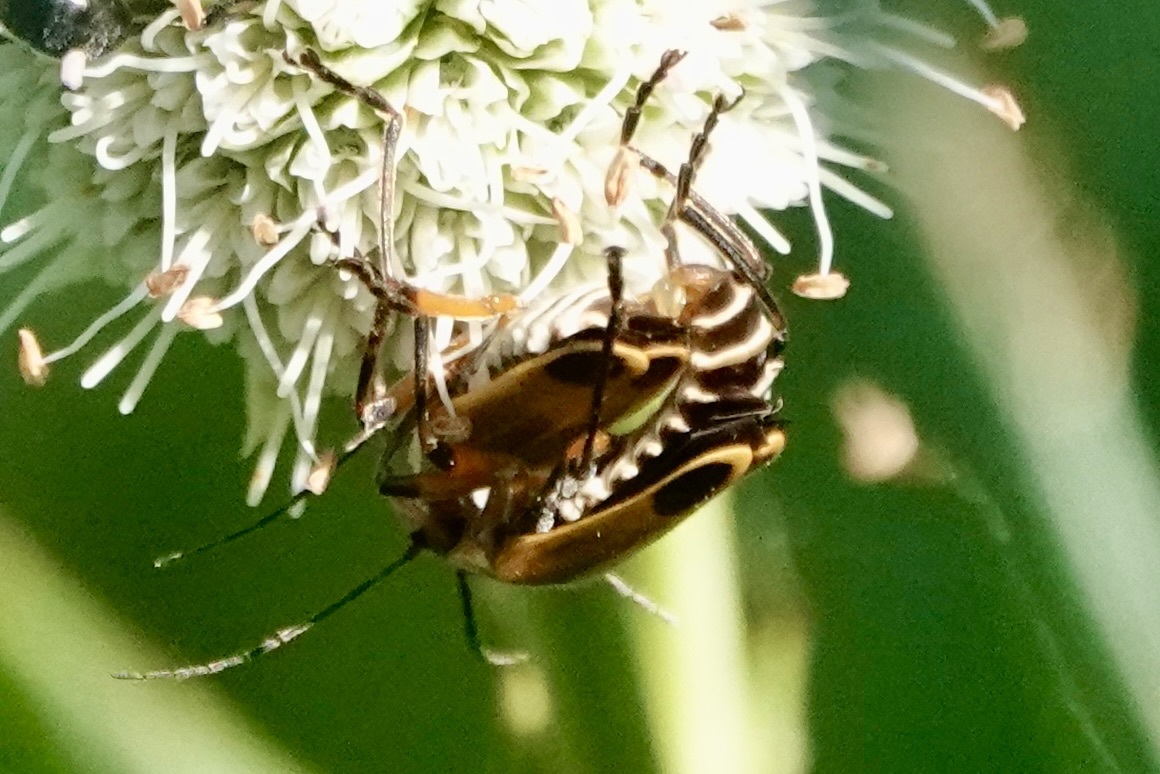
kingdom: Animalia
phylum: Arthropoda
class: Insecta
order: Coleoptera
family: Cantharidae
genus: Chauliognathus
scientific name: Chauliognathus marginatus
